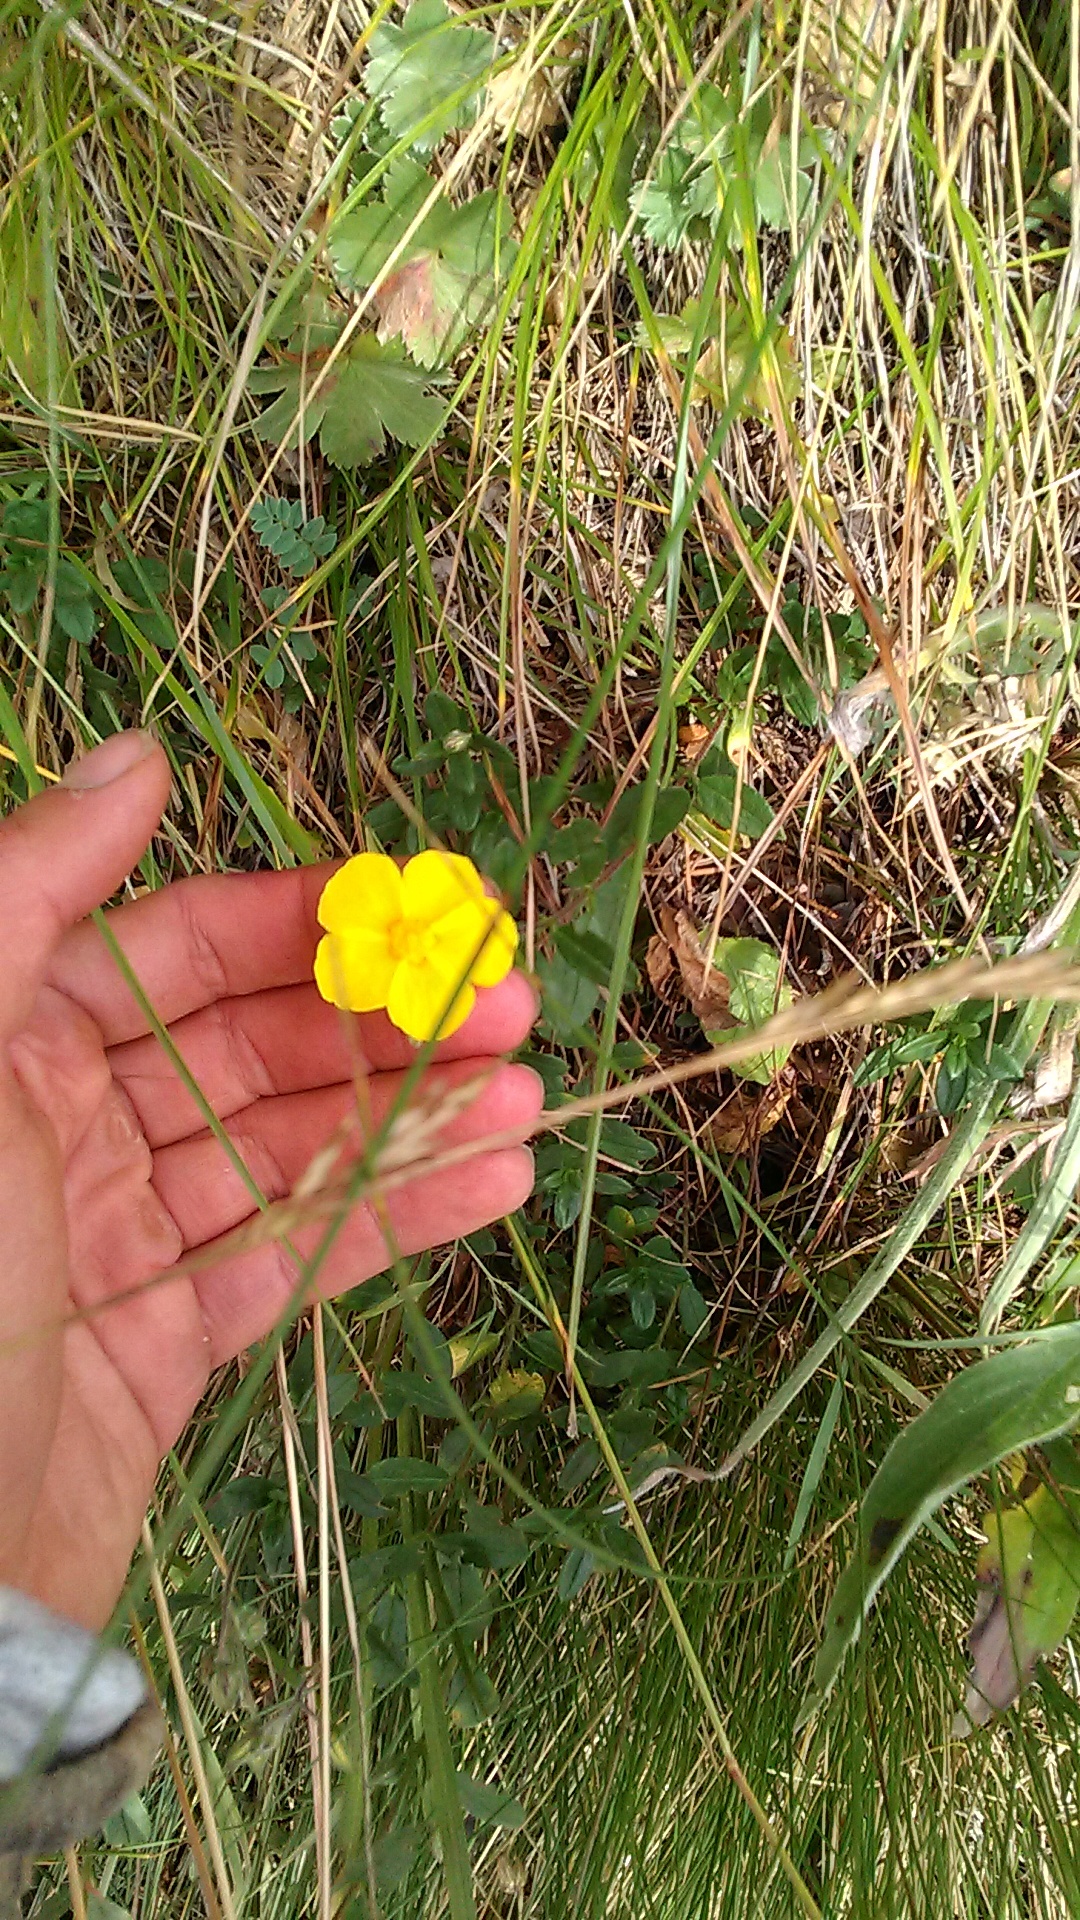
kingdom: Plantae
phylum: Tracheophyta
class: Magnoliopsida
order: Malvales
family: Cistaceae
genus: Helianthemum
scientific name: Helianthemum nummularium
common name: Common rock-rose
